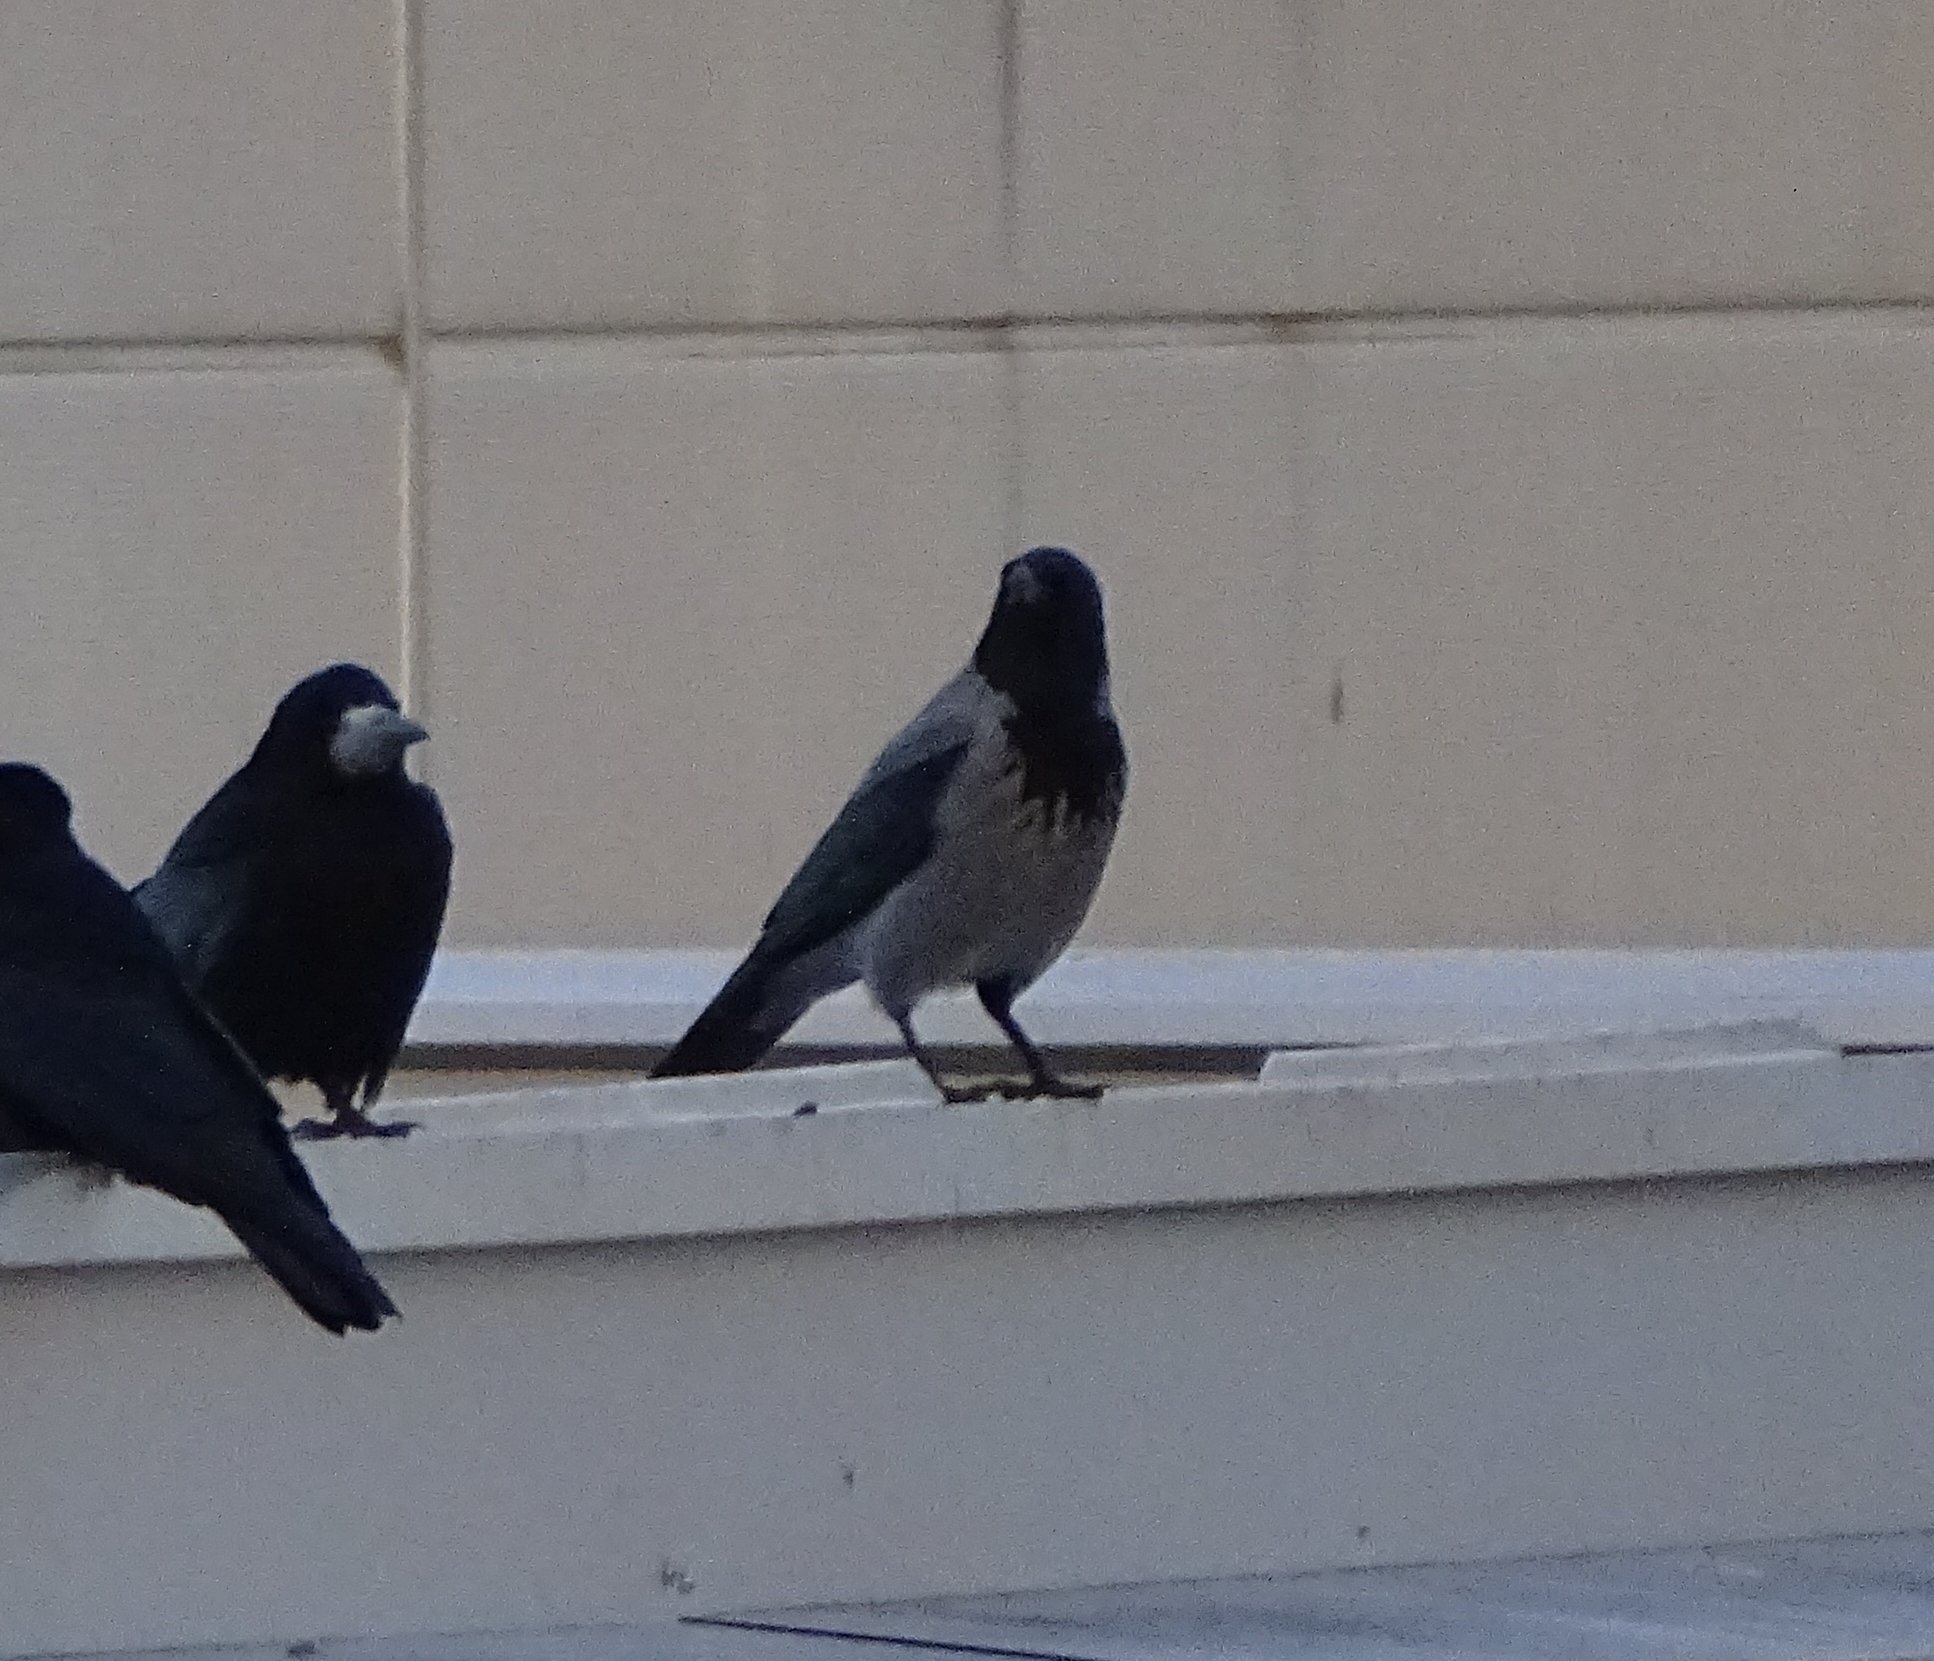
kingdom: Animalia
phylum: Chordata
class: Aves
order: Passeriformes
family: Corvidae
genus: Corvus
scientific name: Corvus cornix
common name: Hooded crow
